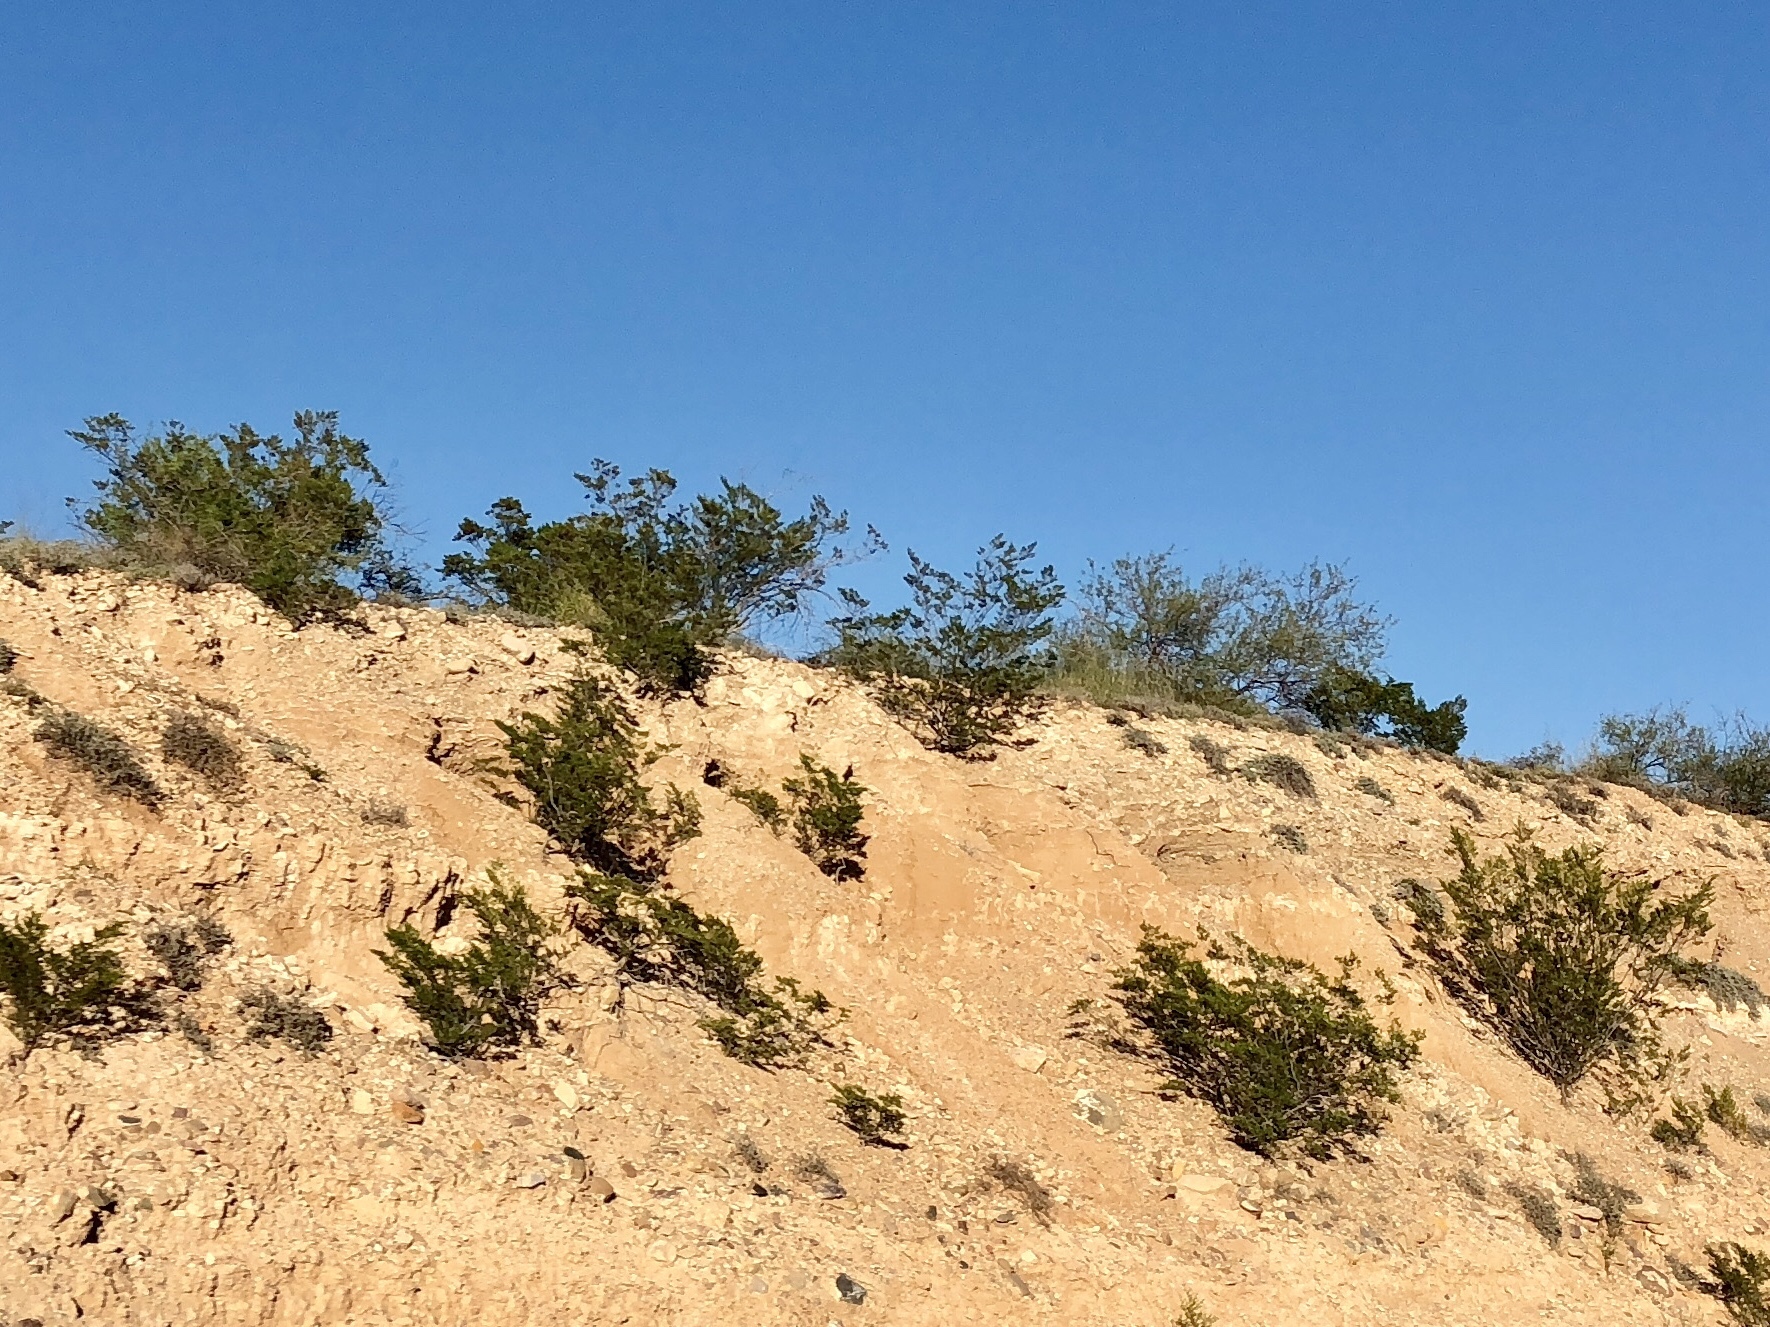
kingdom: Plantae
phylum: Tracheophyta
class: Magnoliopsida
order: Zygophyllales
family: Zygophyllaceae
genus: Larrea
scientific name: Larrea tridentata
